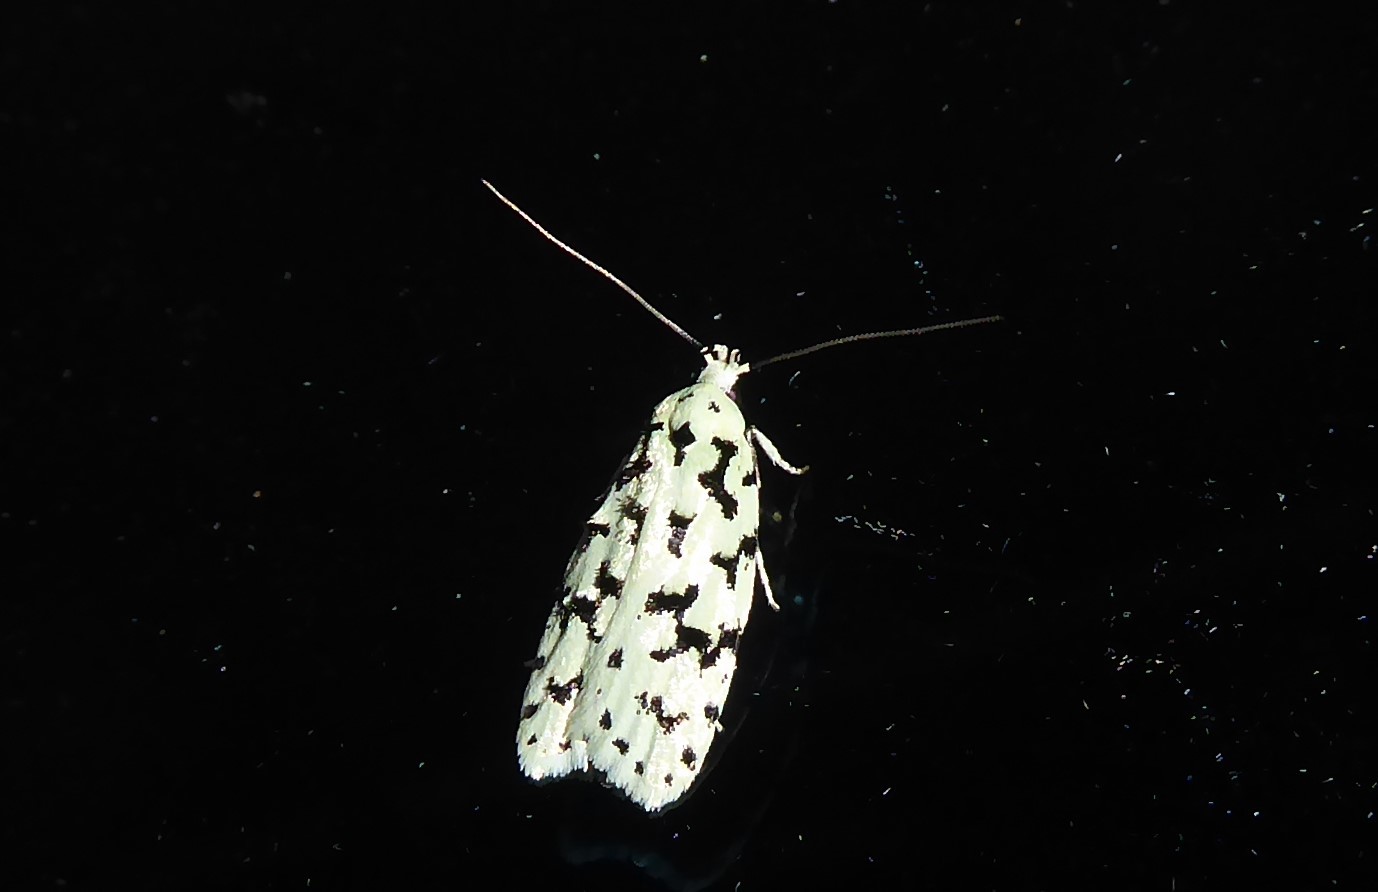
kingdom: Animalia
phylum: Arthropoda
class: Insecta
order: Lepidoptera
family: Oecophoridae
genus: Izatha
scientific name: Izatha huttoni
